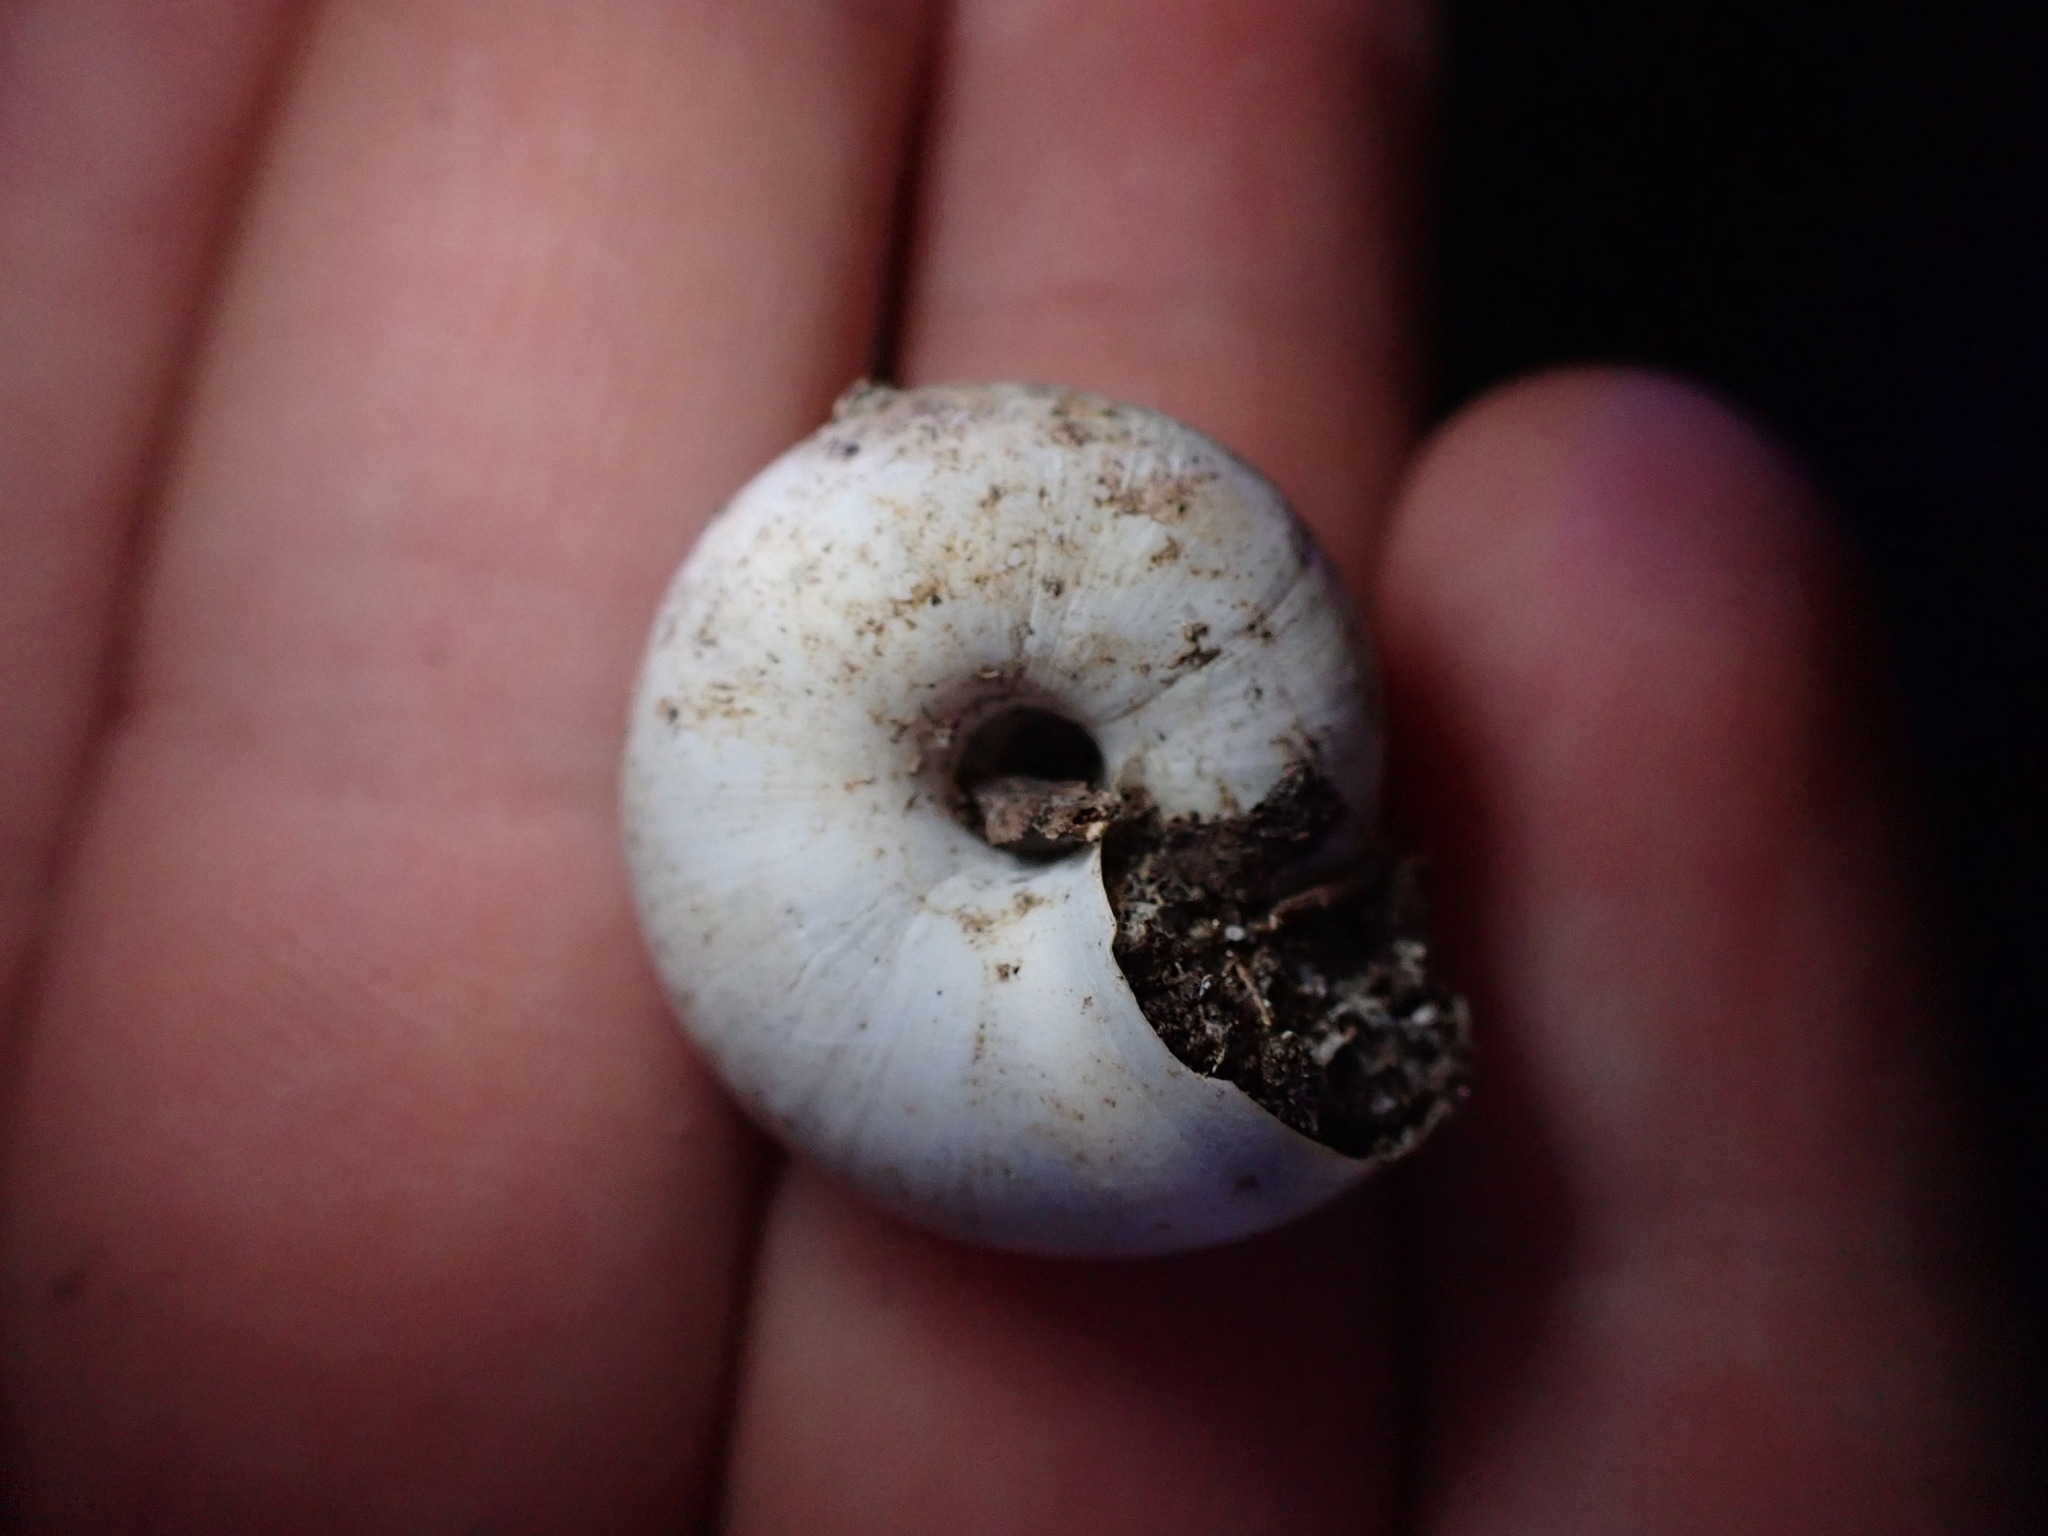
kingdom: Animalia
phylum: Mollusca
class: Gastropoda
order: Stylommatophora
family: Zonitidae
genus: Zonites
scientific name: Zonites algirus
